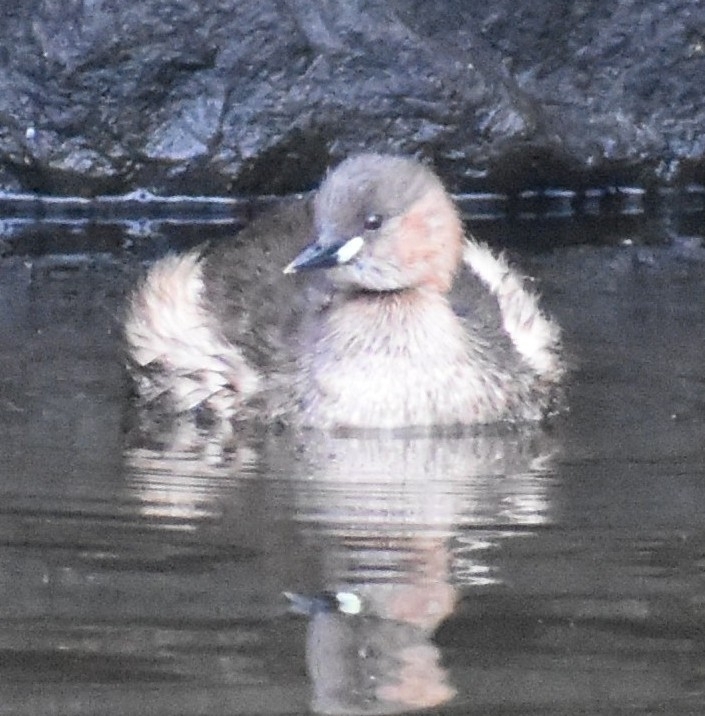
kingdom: Animalia
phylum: Chordata
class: Aves
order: Podicipediformes
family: Podicipedidae
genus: Tachybaptus
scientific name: Tachybaptus ruficollis
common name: Little grebe
